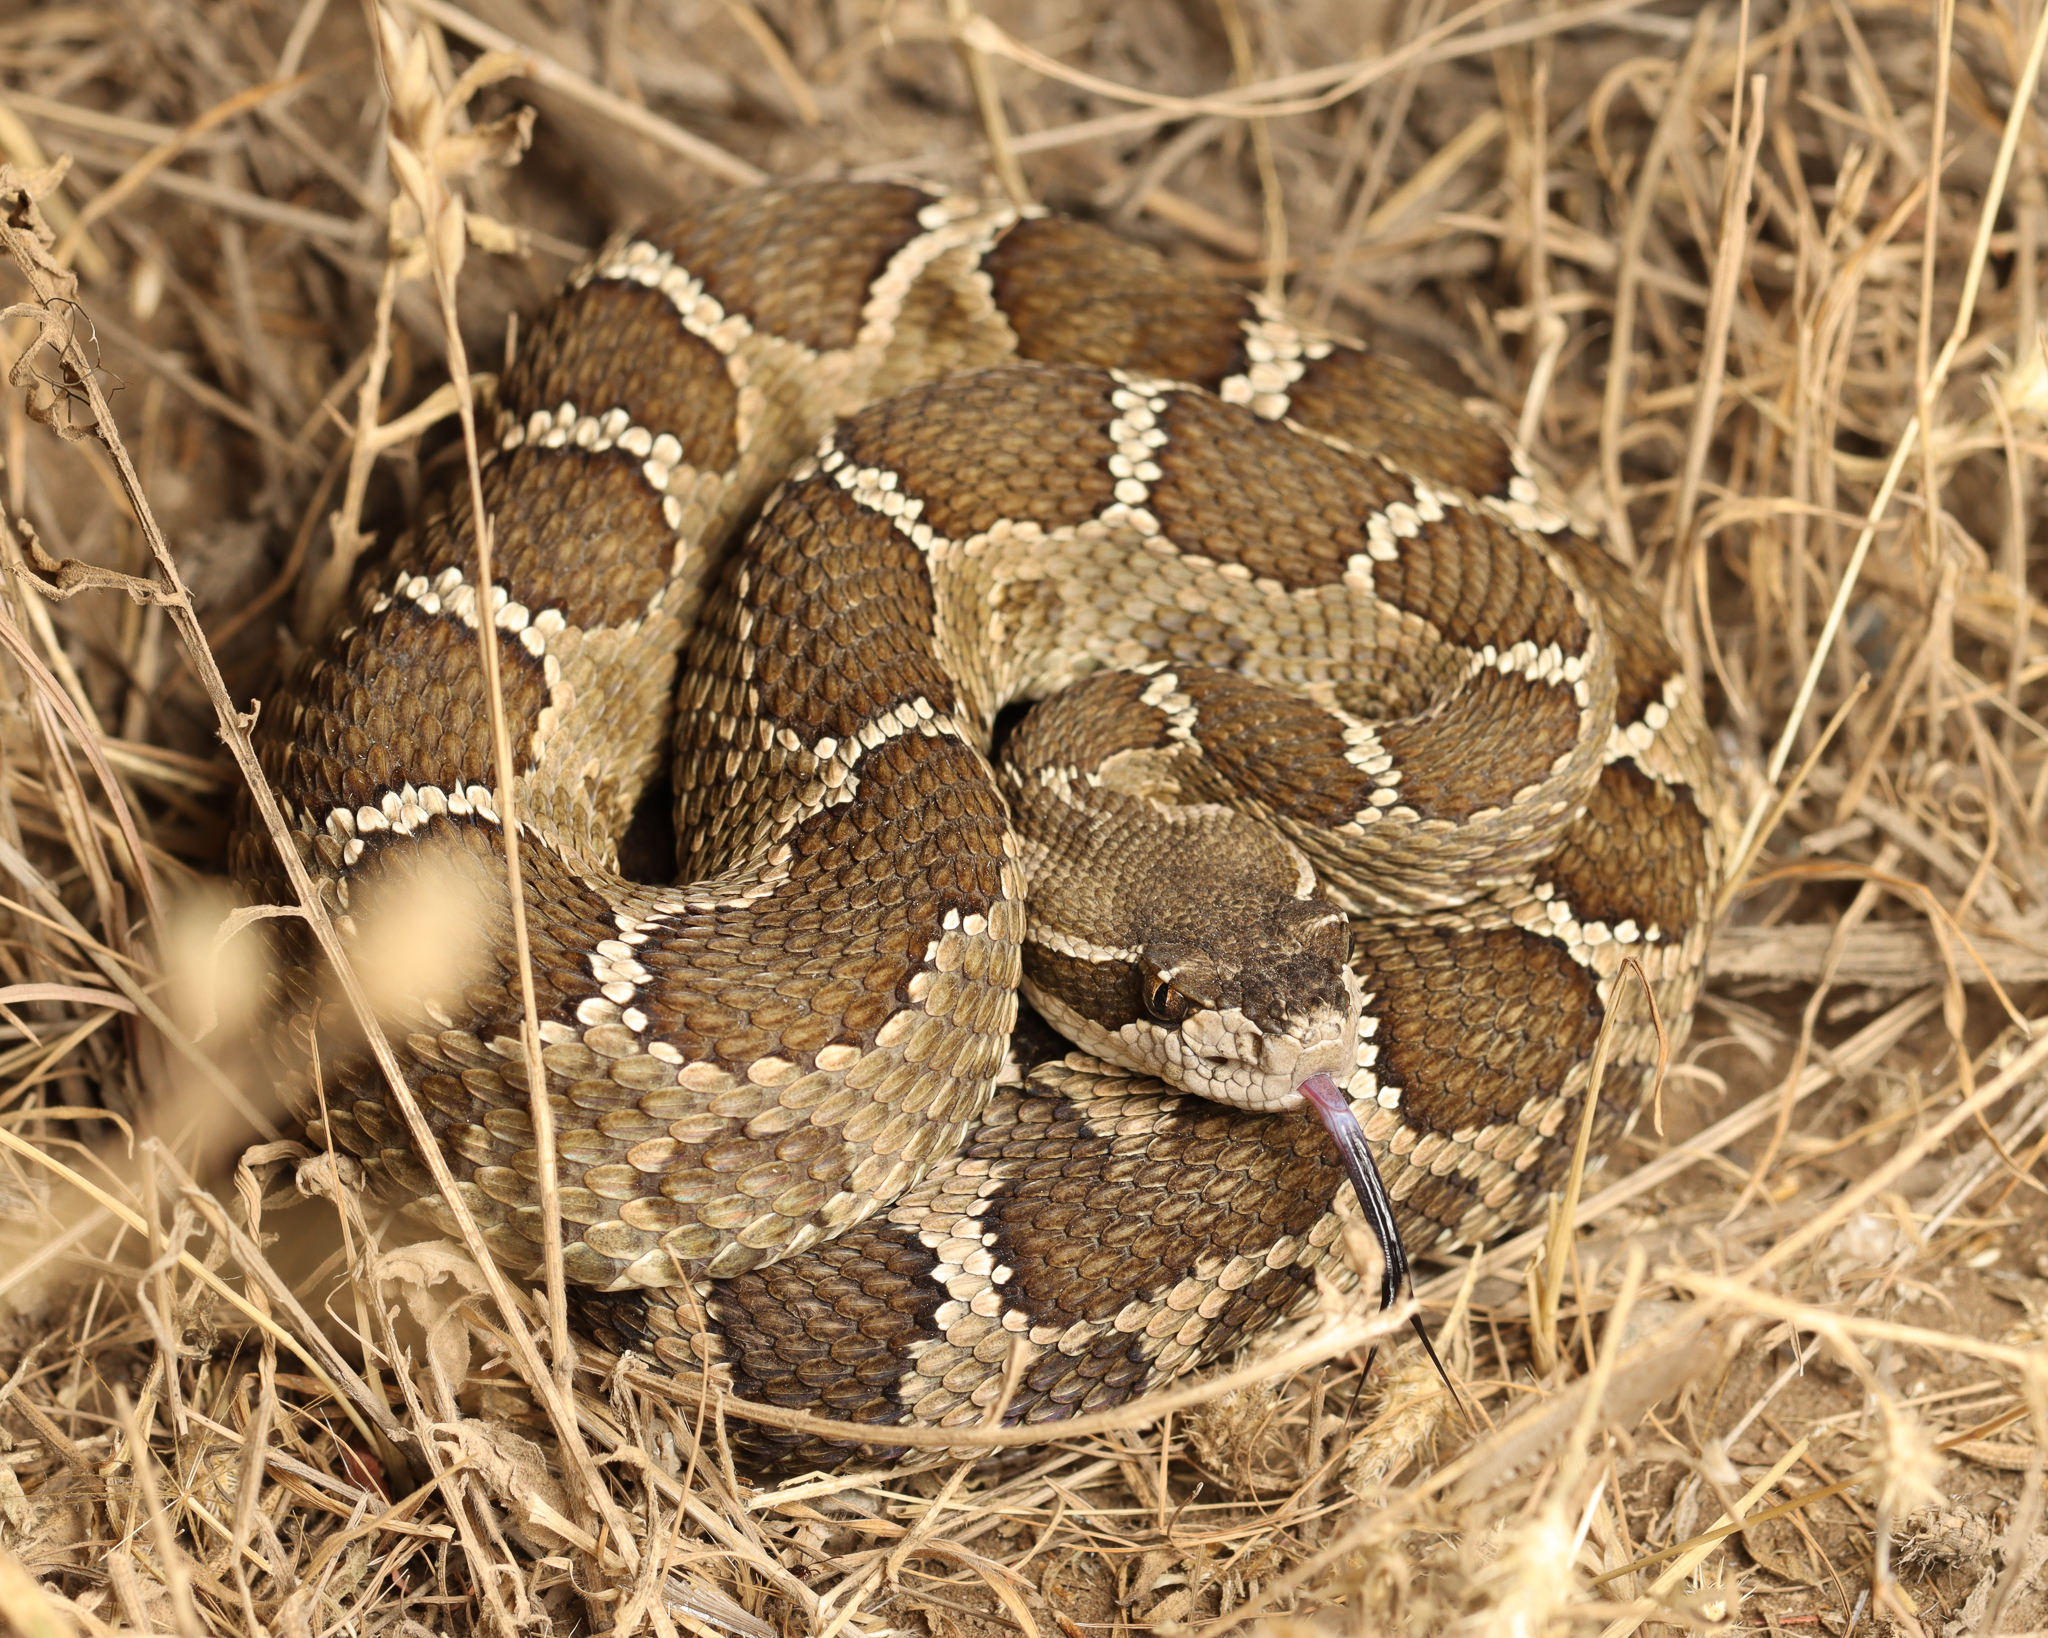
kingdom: Animalia
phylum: Chordata
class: Squamata
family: Viperidae
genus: Crotalus
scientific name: Crotalus oreganus
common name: Abyssus
